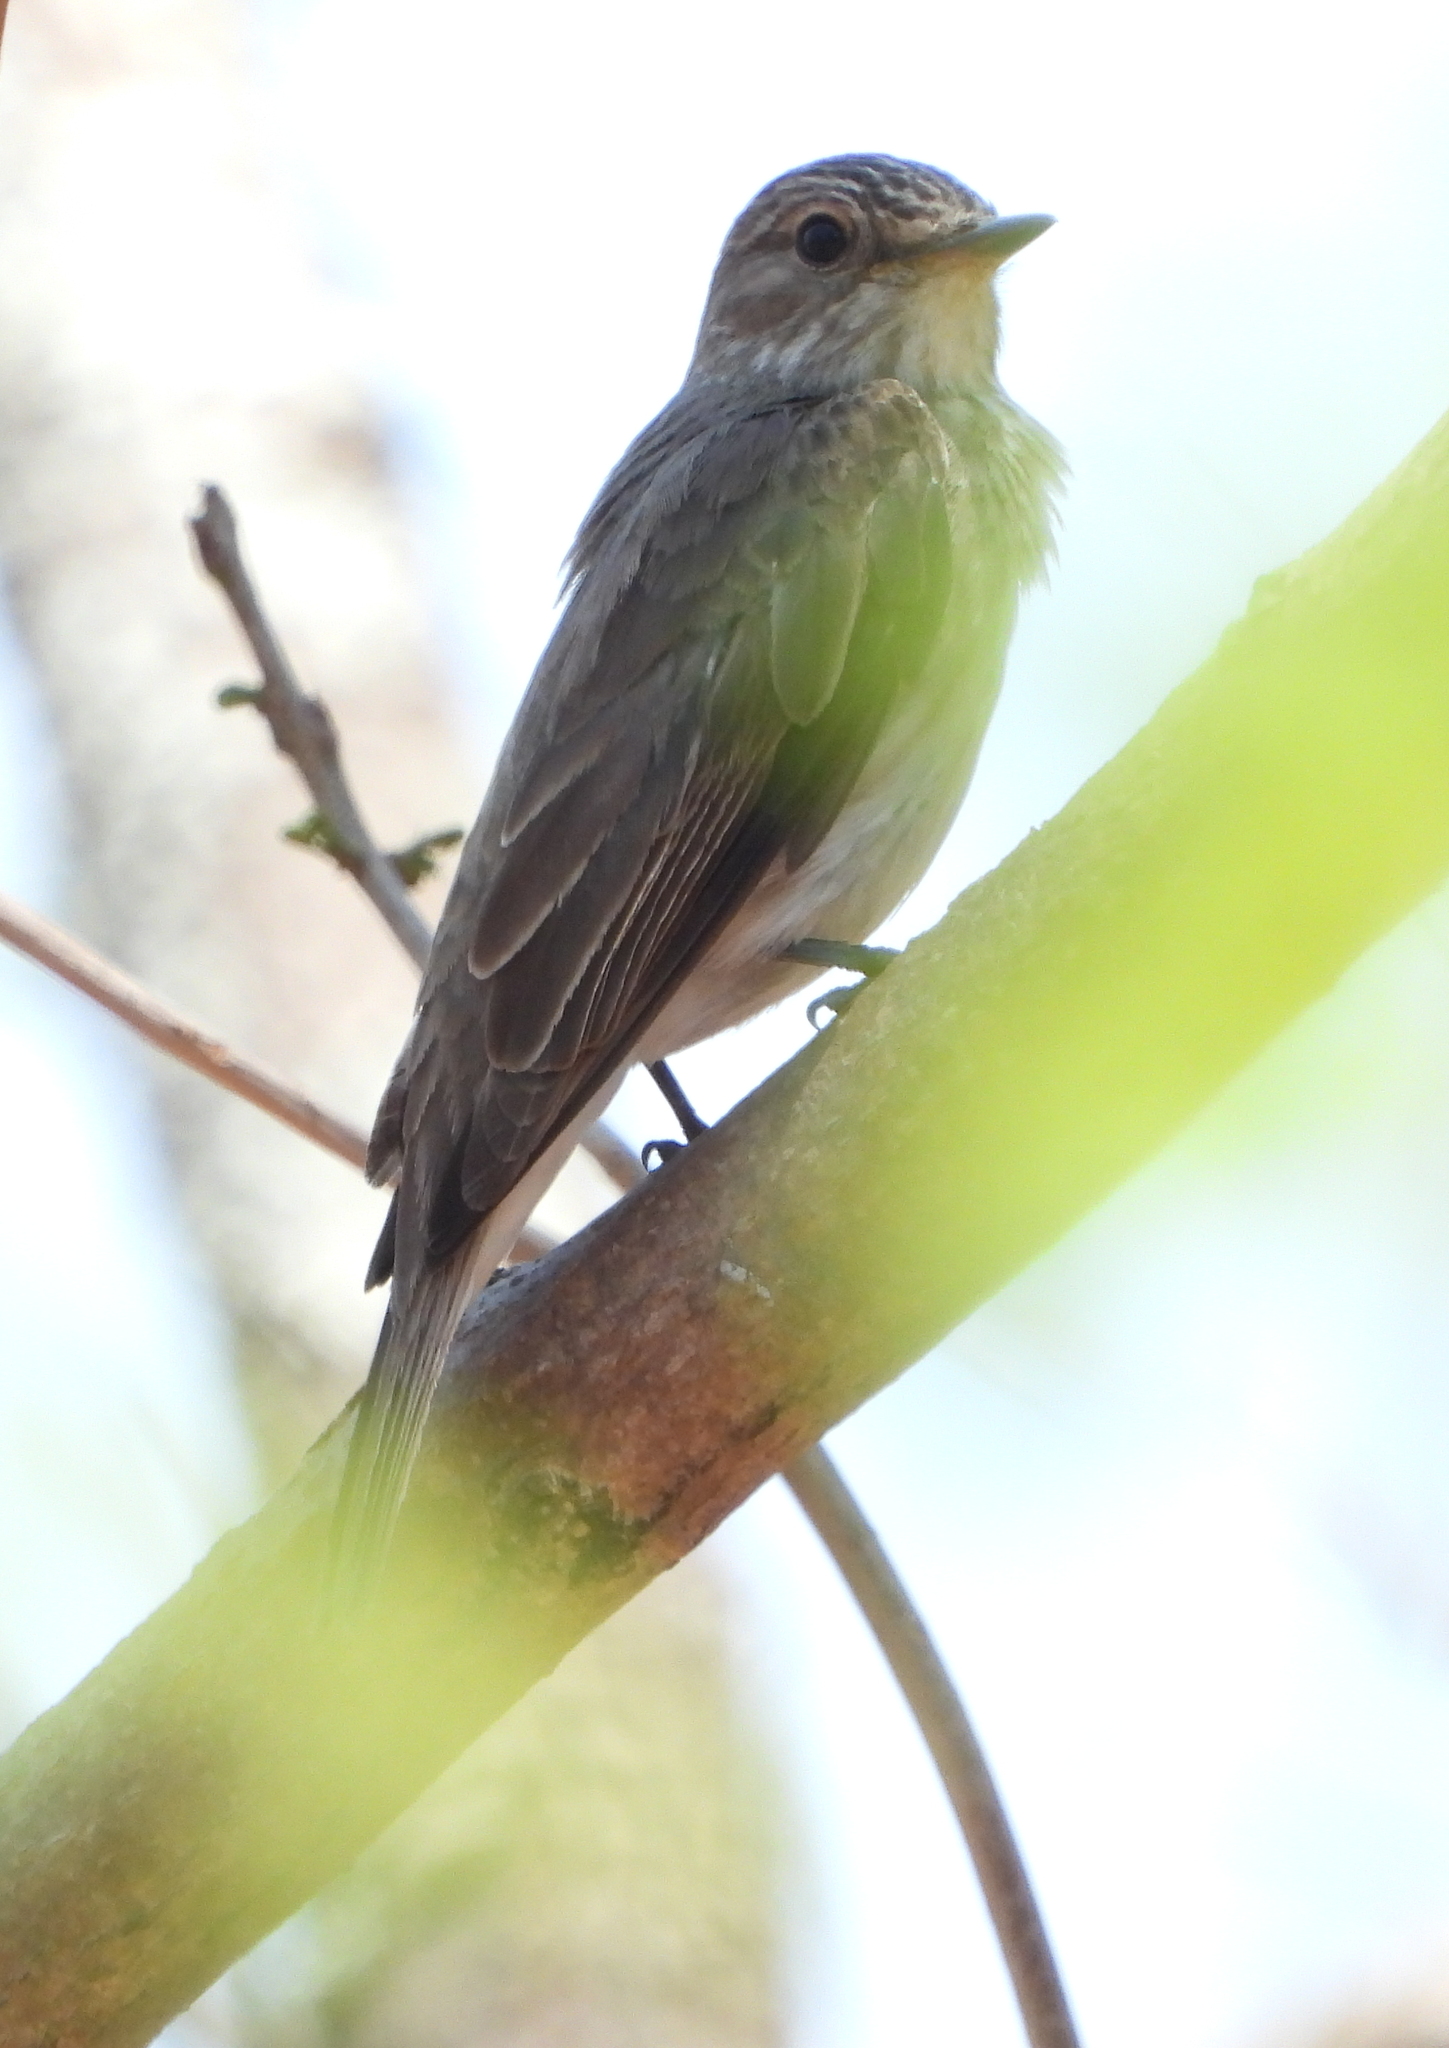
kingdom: Animalia
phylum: Chordata
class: Aves
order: Passeriformes
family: Muscicapidae
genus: Muscicapa
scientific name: Muscicapa striata
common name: Spotted flycatcher
